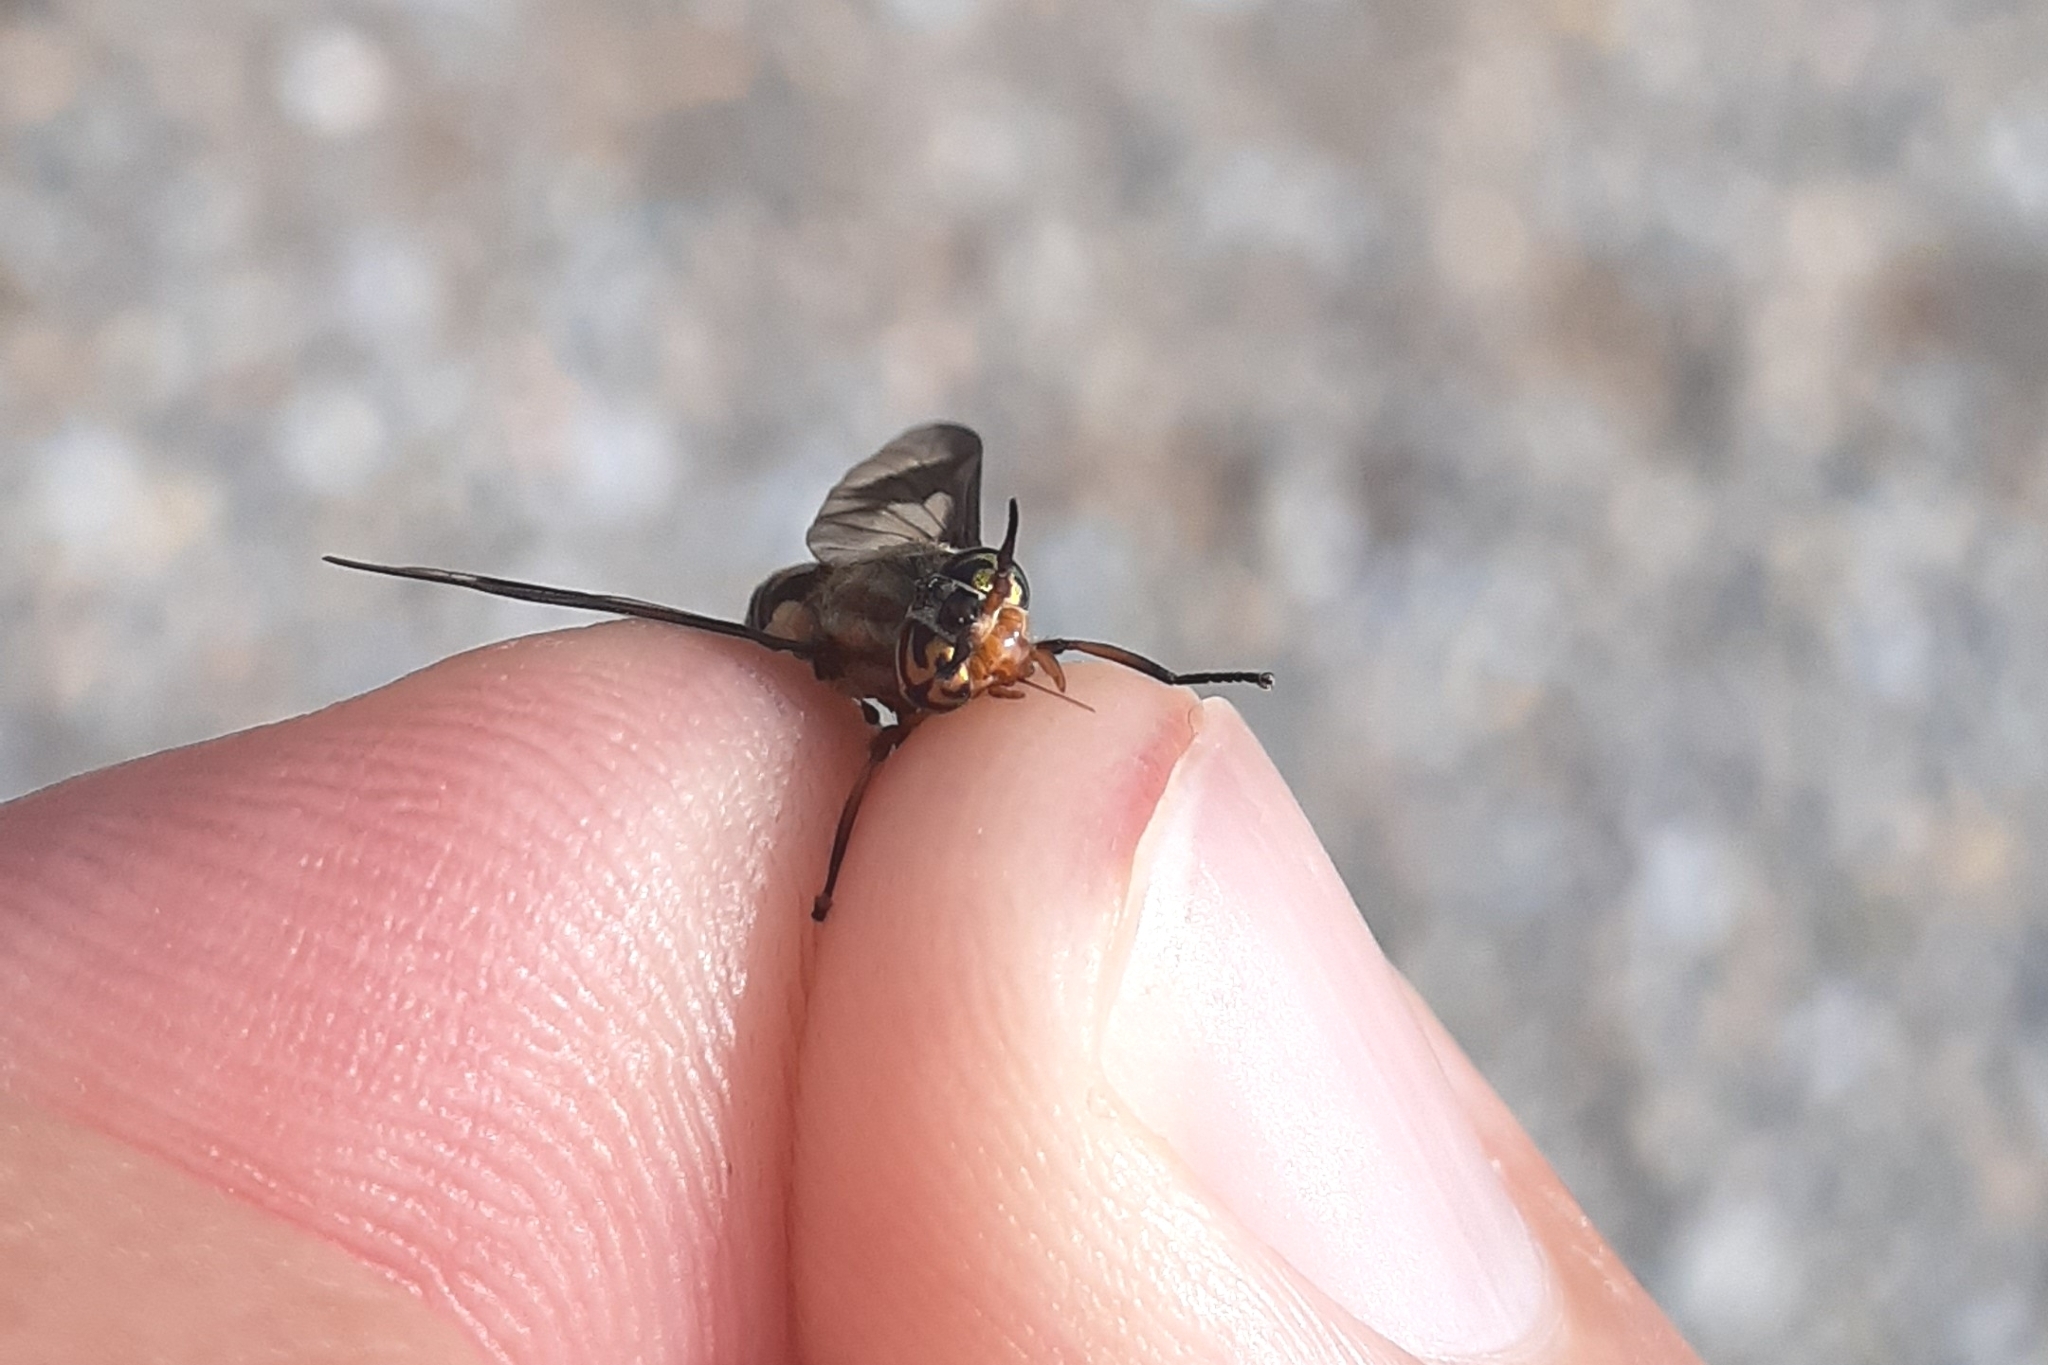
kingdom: Animalia
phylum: Arthropoda
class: Insecta
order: Diptera
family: Tabanidae
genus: Chrysops
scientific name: Chrysops sackeni
